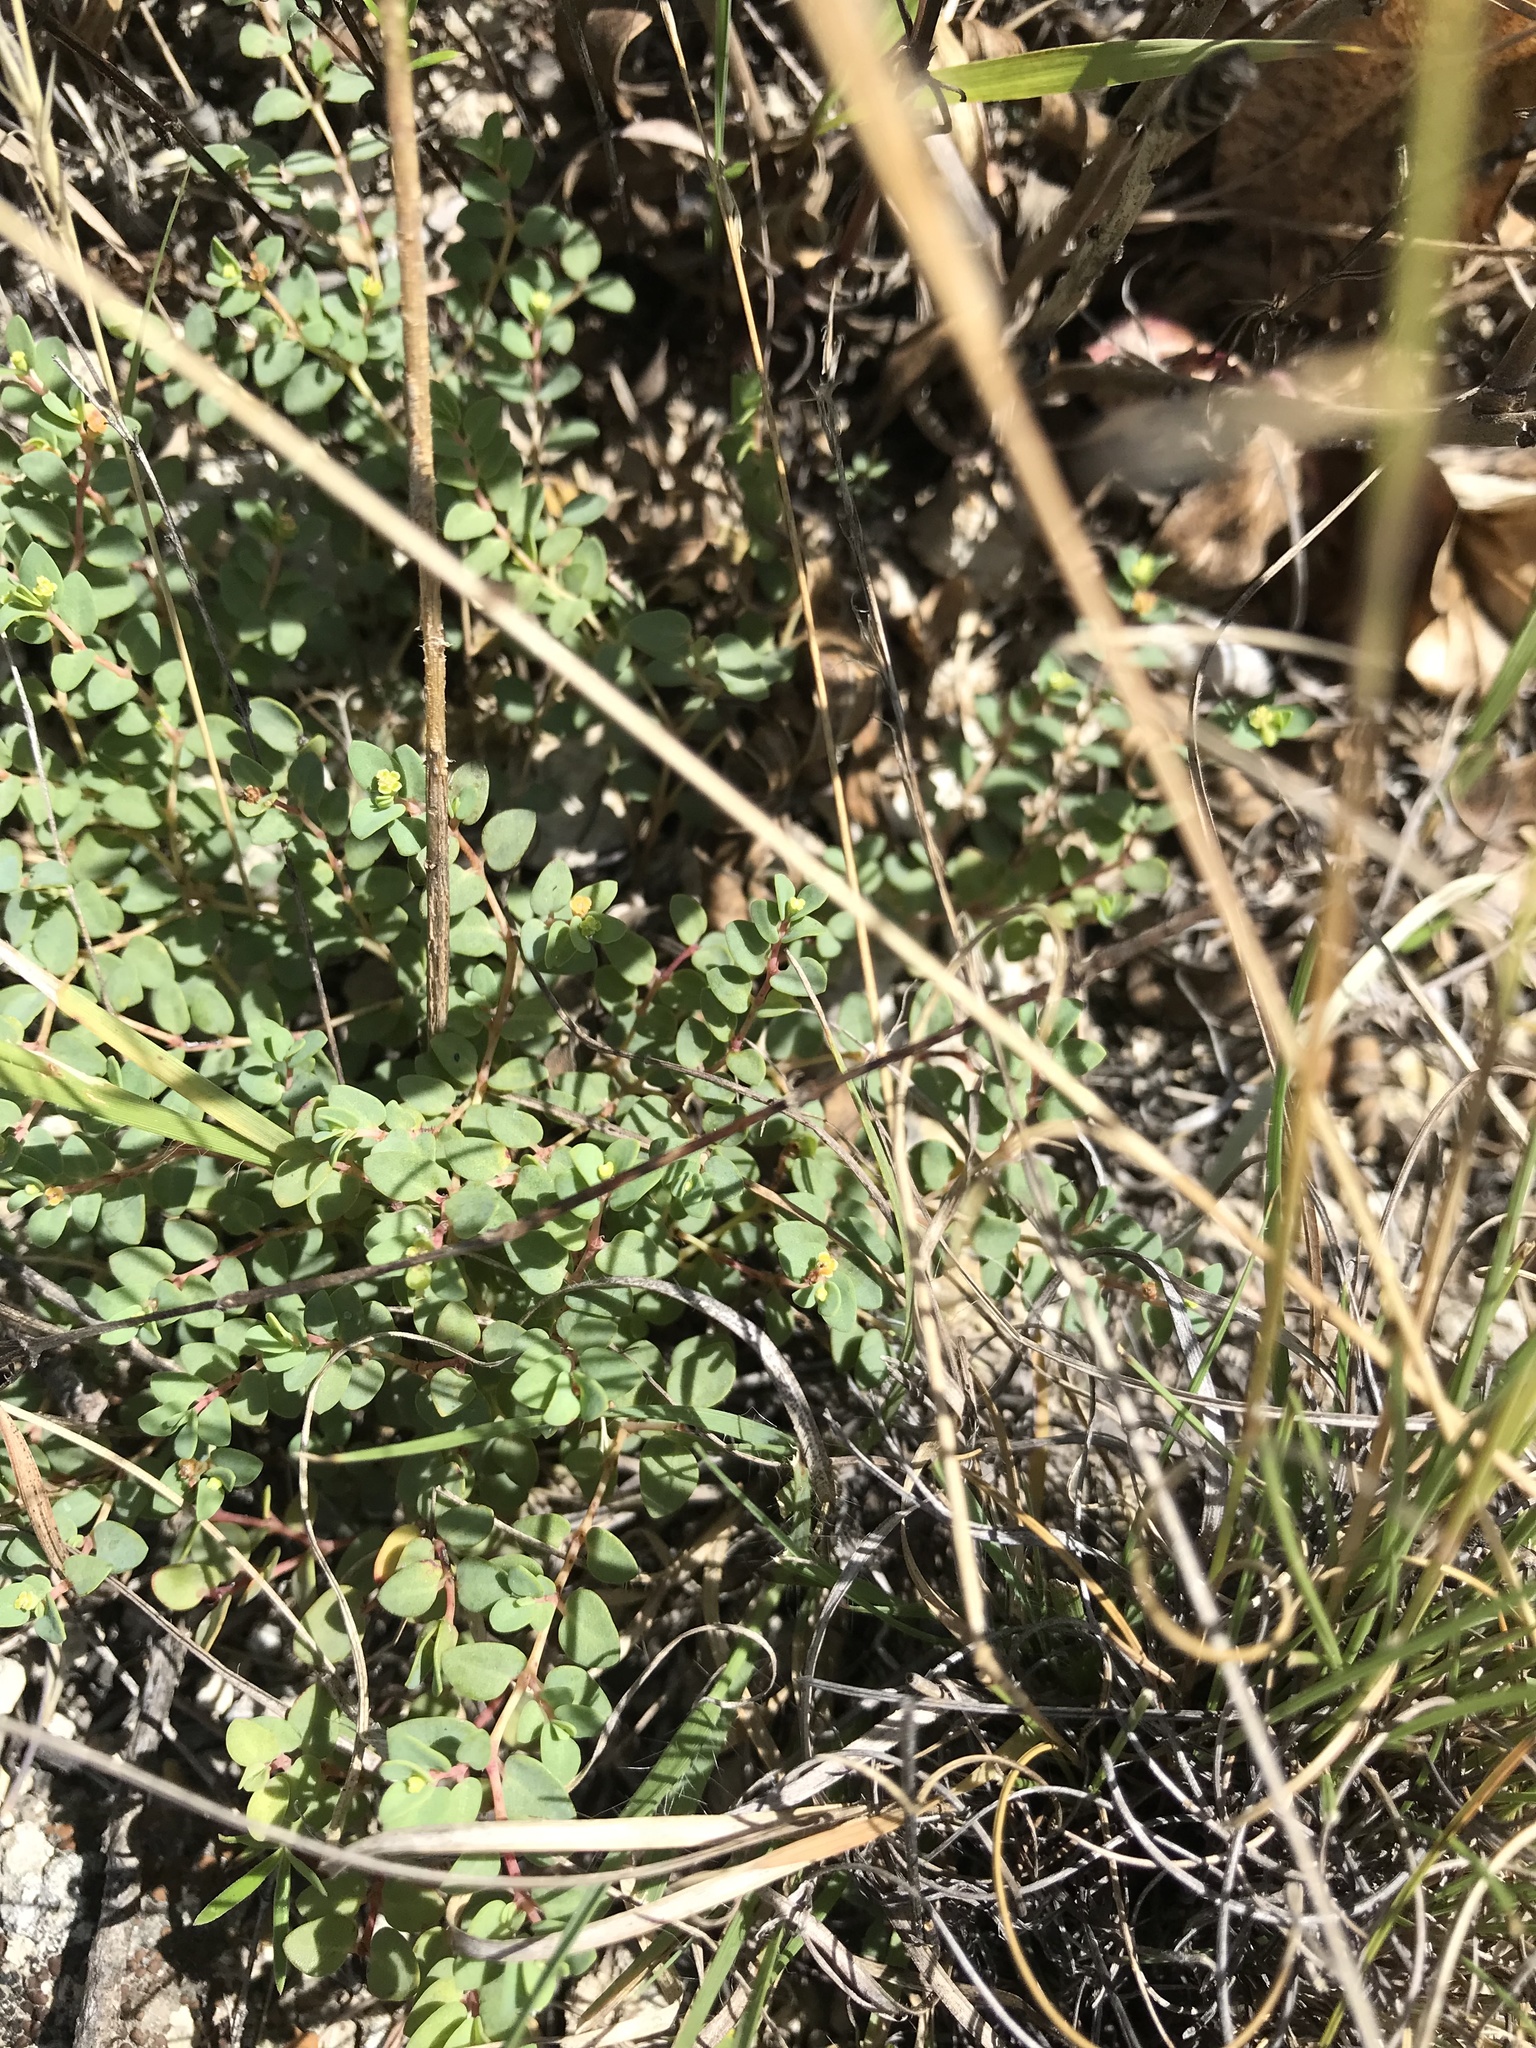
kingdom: Plantae
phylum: Tracheophyta
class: Magnoliopsida
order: Malpighiales
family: Euphorbiaceae
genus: Euphorbia
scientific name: Euphorbia fendleri
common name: Fendler's euphorbia
